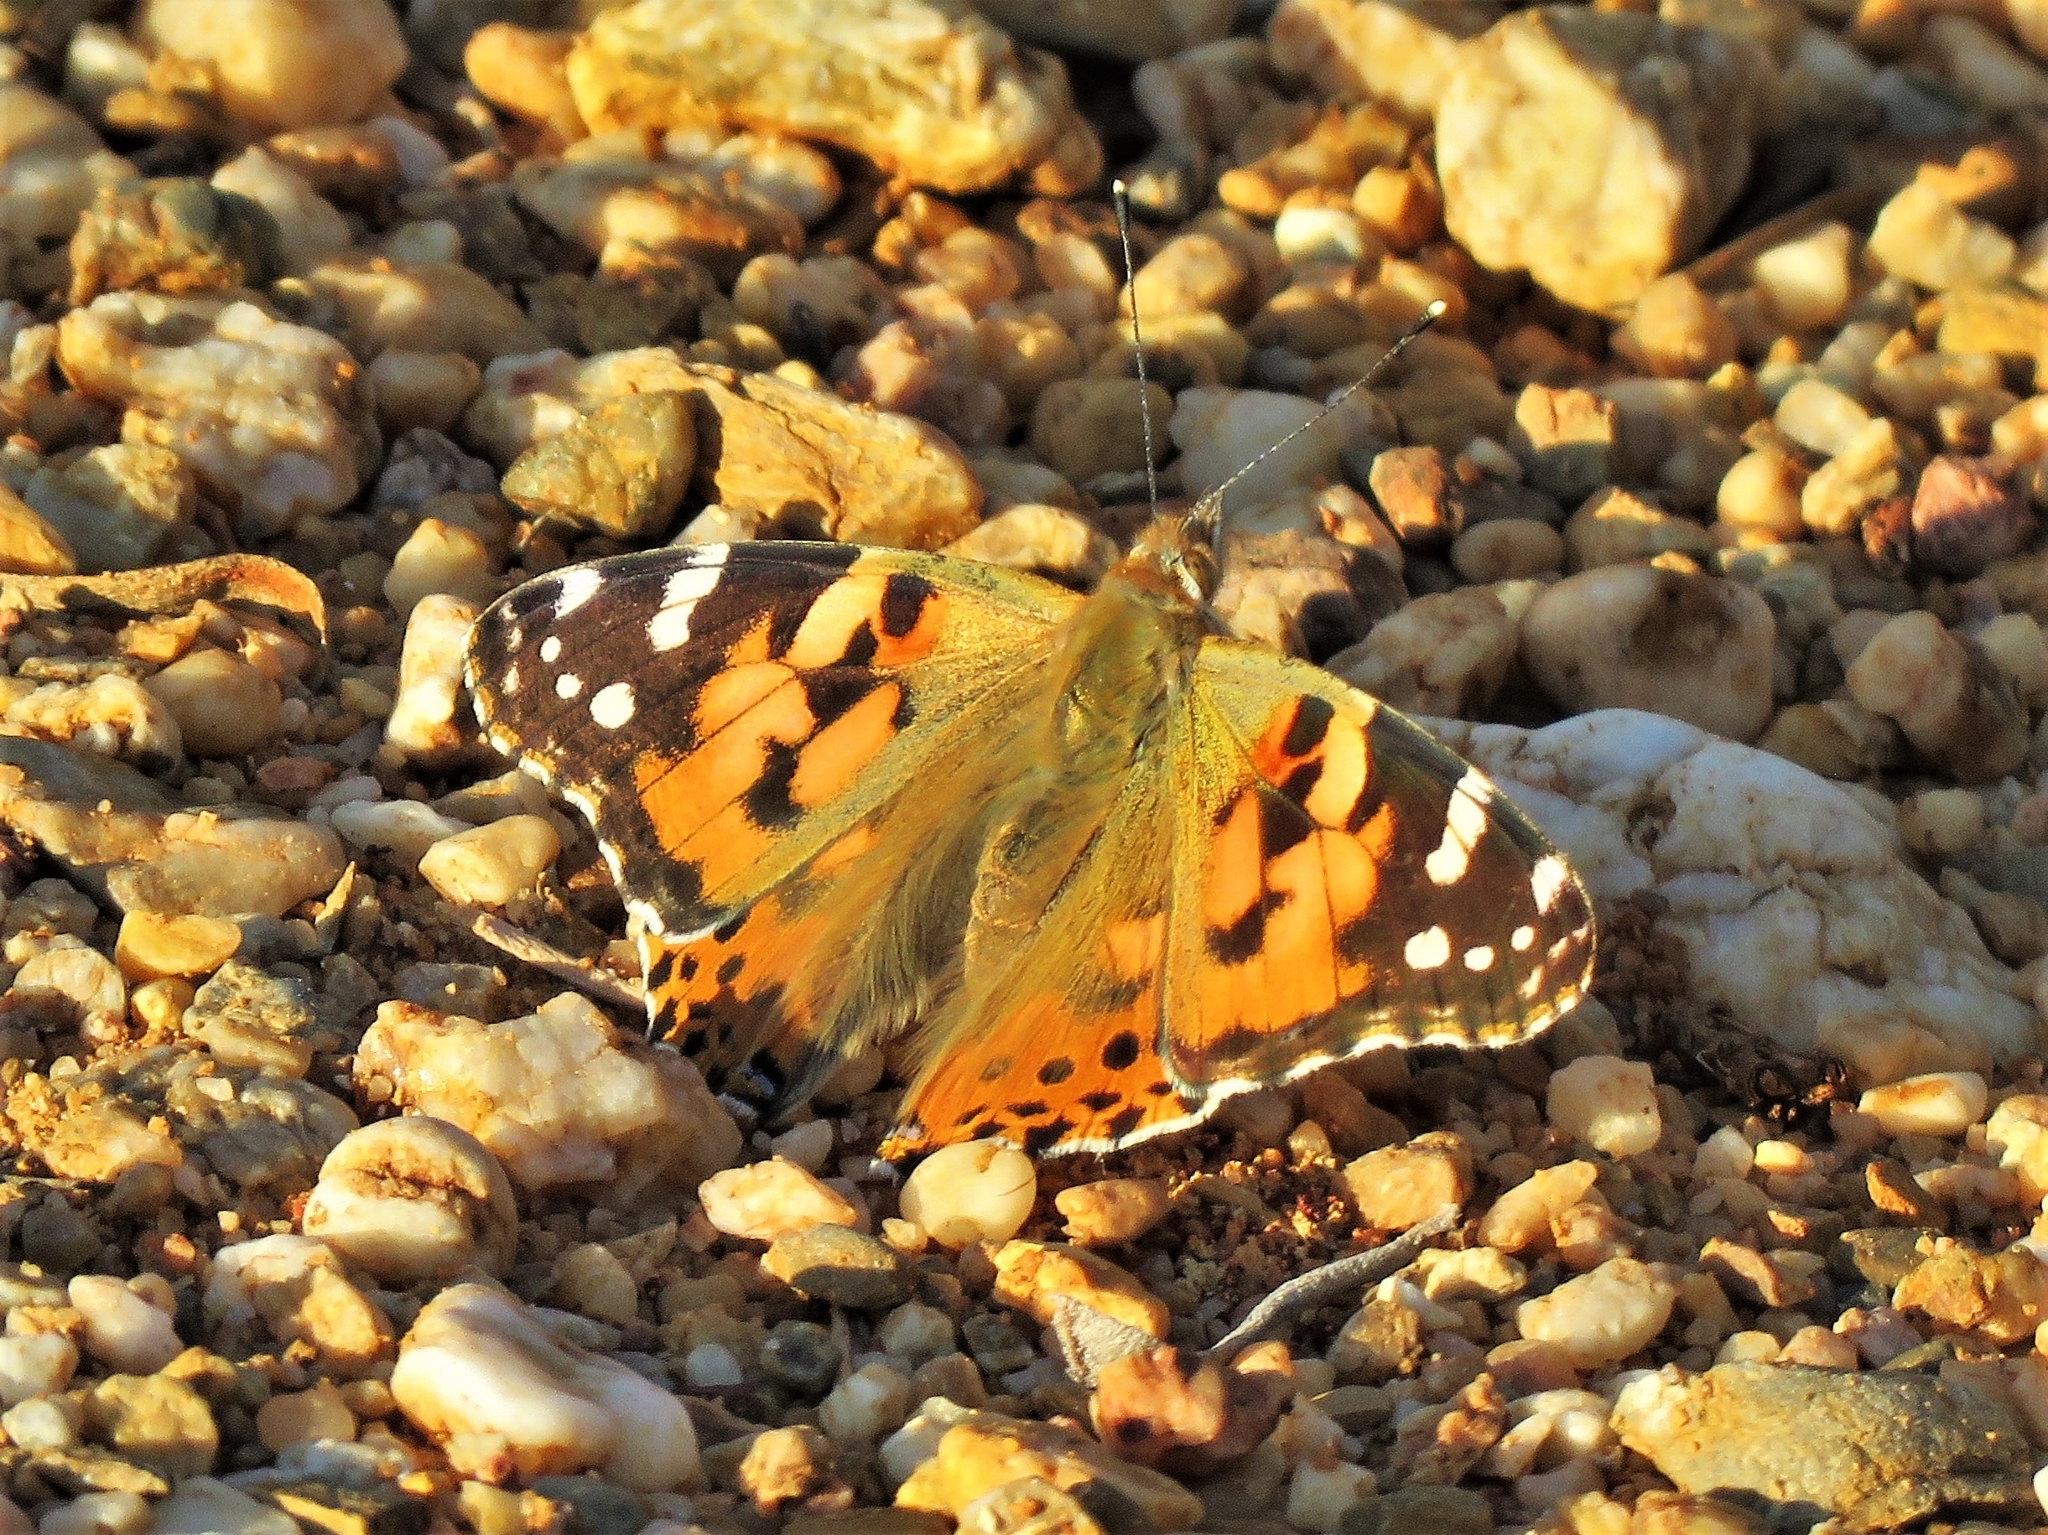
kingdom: Animalia
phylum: Arthropoda
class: Insecta
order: Lepidoptera
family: Nymphalidae
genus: Vanessa
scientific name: Vanessa cardui
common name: Painted lady
